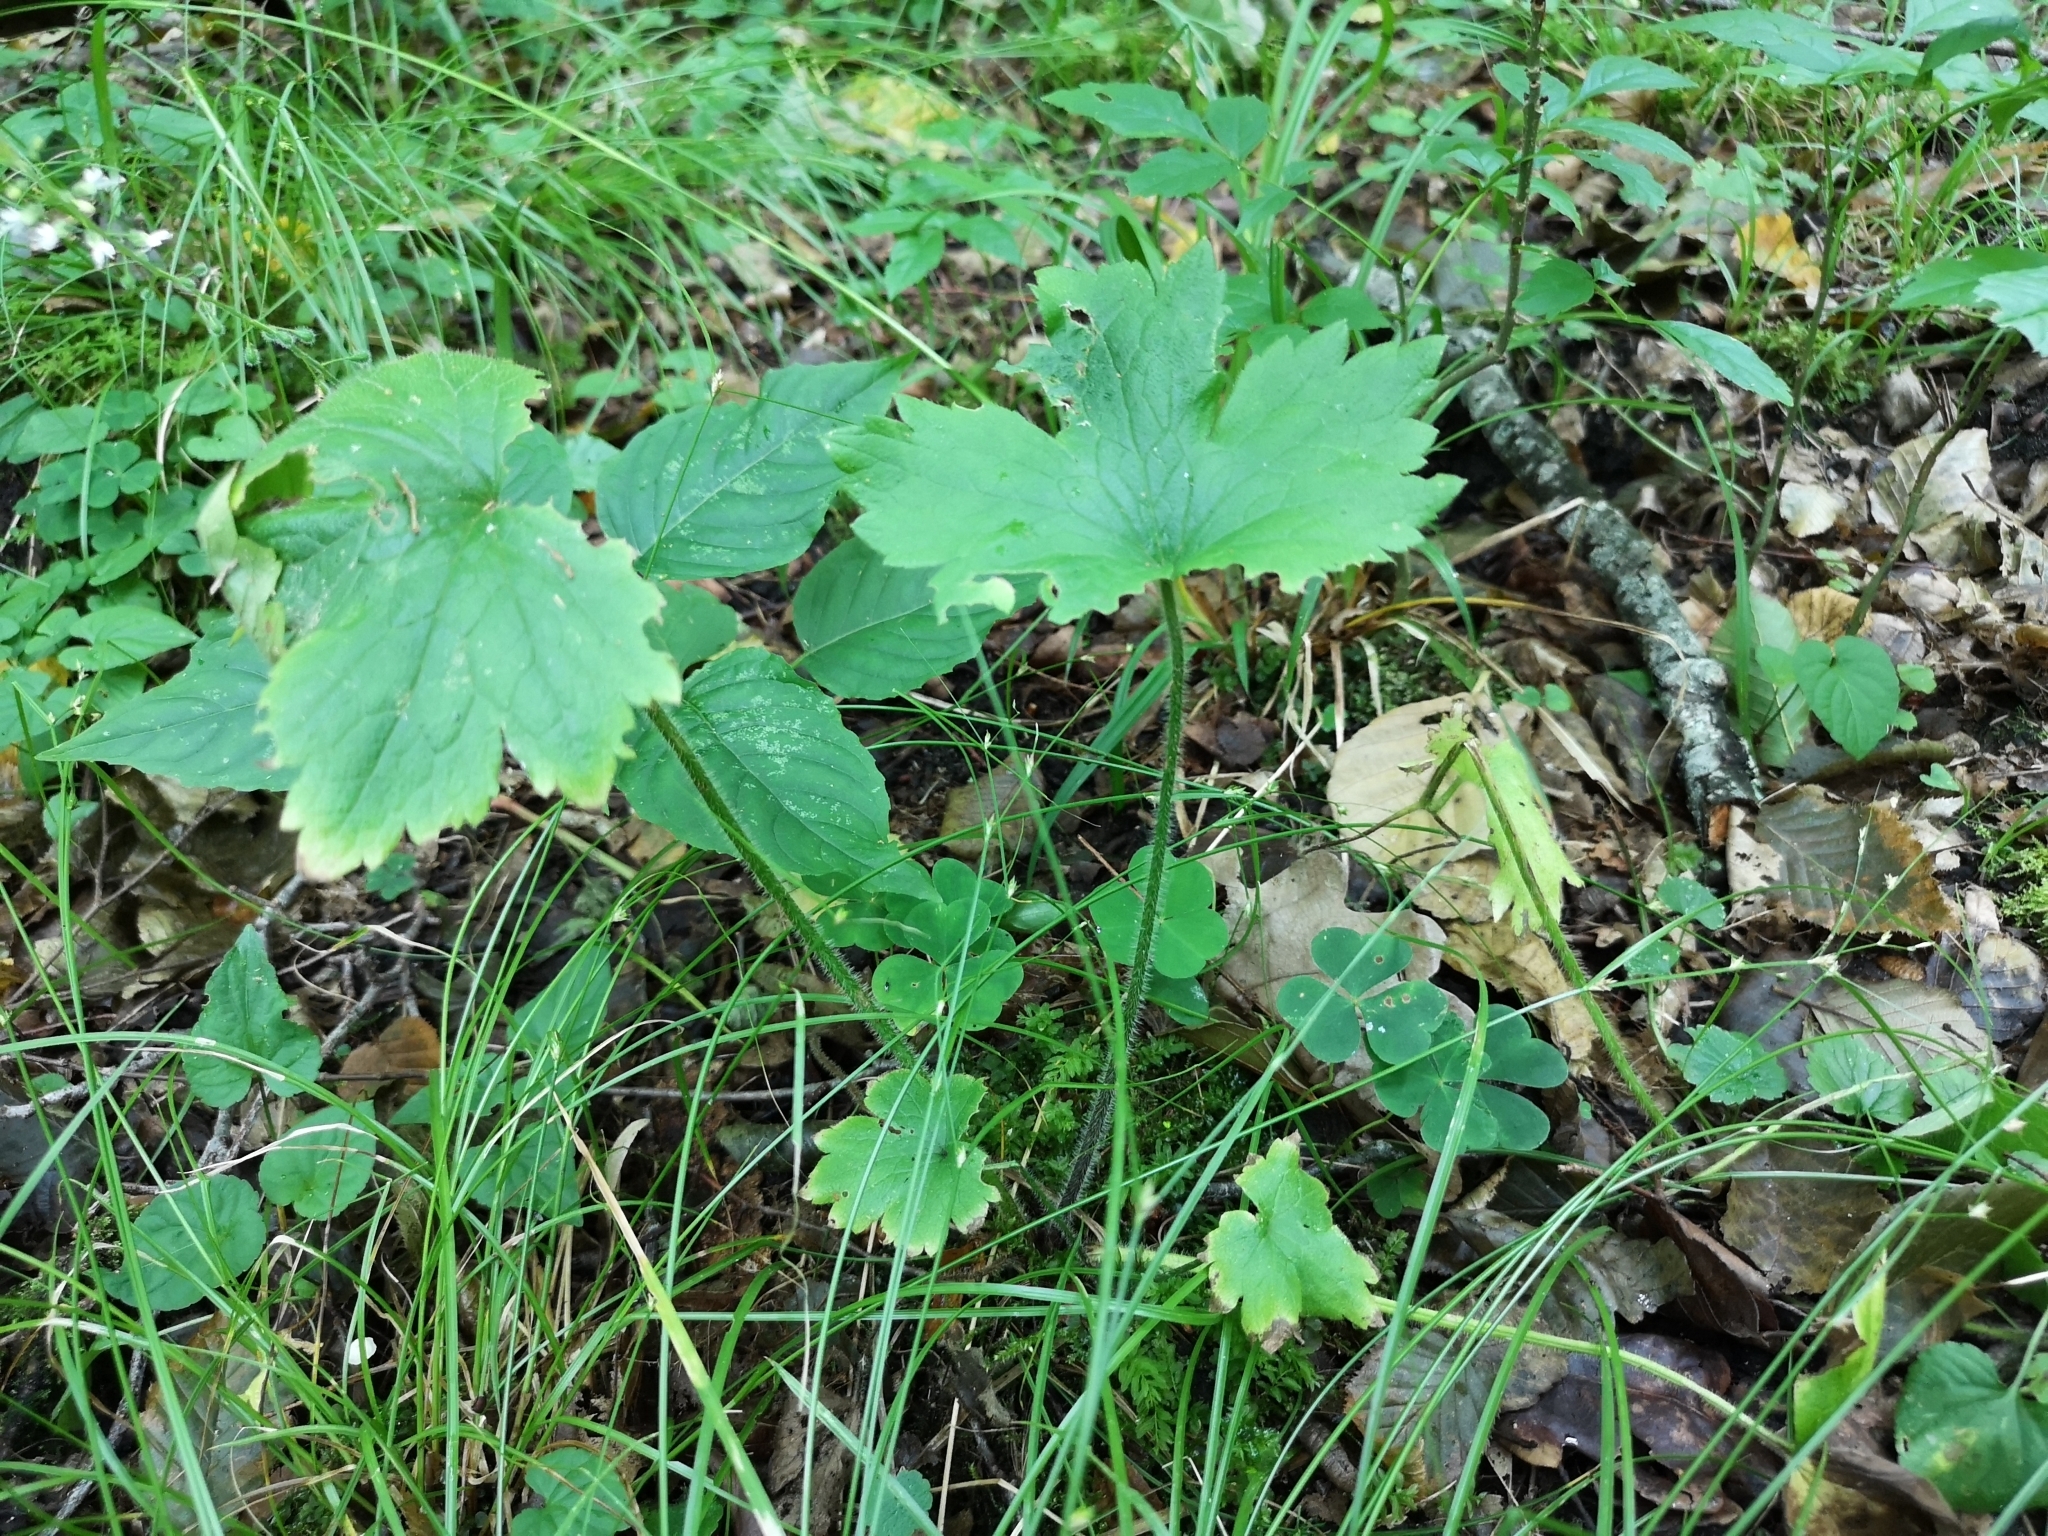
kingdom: Plantae
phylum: Tracheophyta
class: Magnoliopsida
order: Ranunculales
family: Ranunculaceae
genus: Ranunculus
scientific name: Ranunculus lanuginosus
